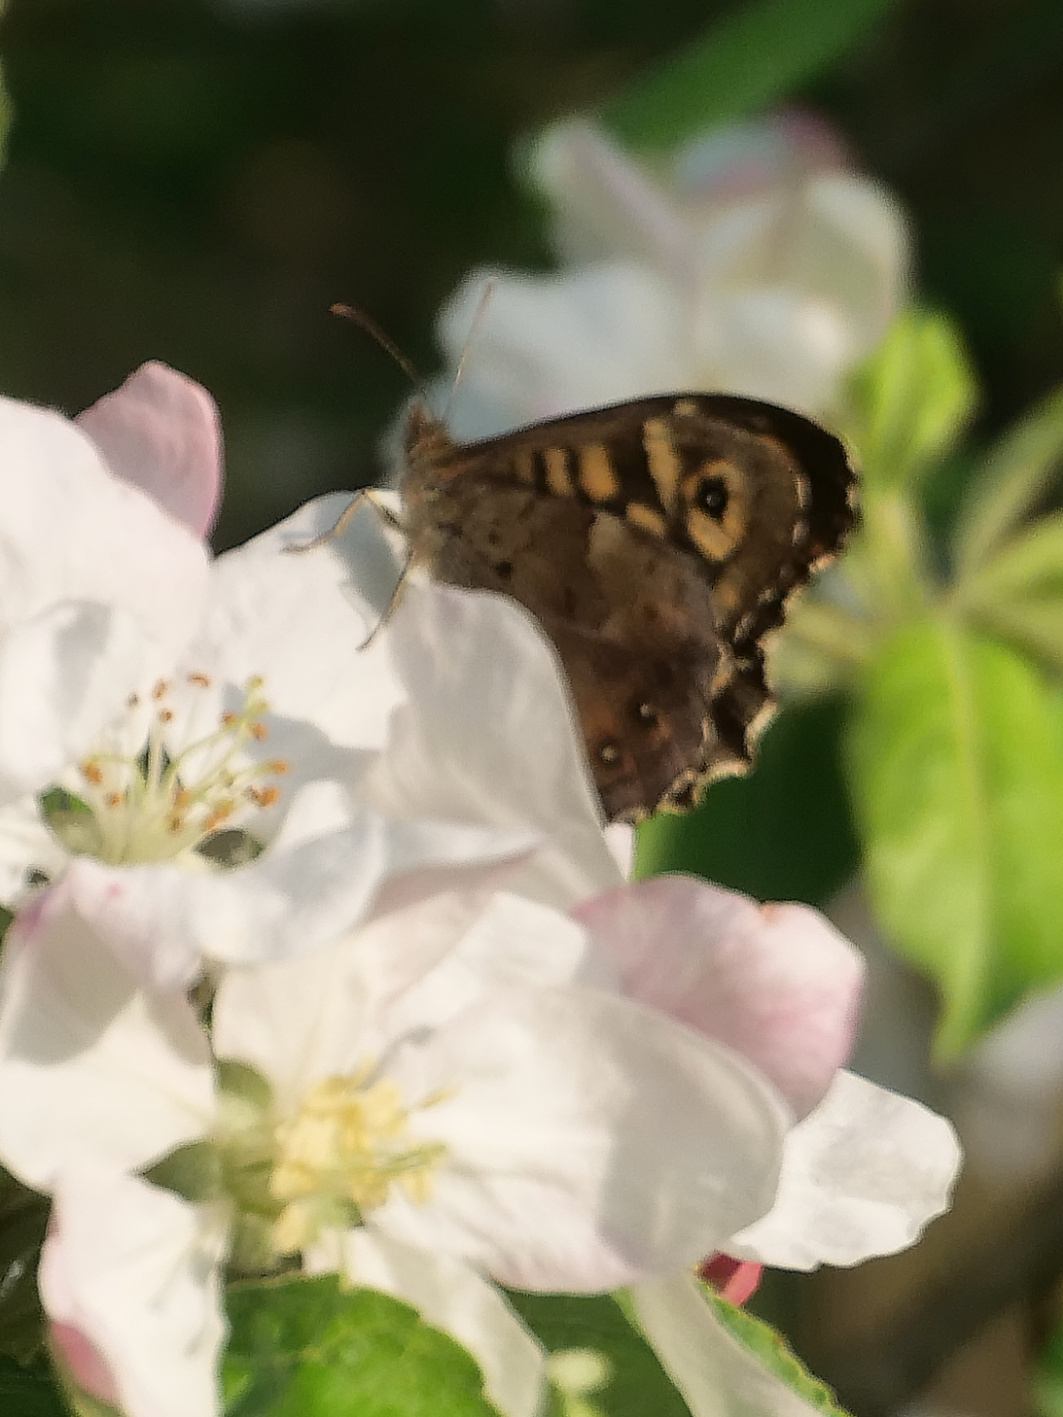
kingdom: Animalia
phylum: Arthropoda
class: Insecta
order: Lepidoptera
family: Nymphalidae
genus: Pararge
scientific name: Pararge aegeria
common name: Speckled wood
